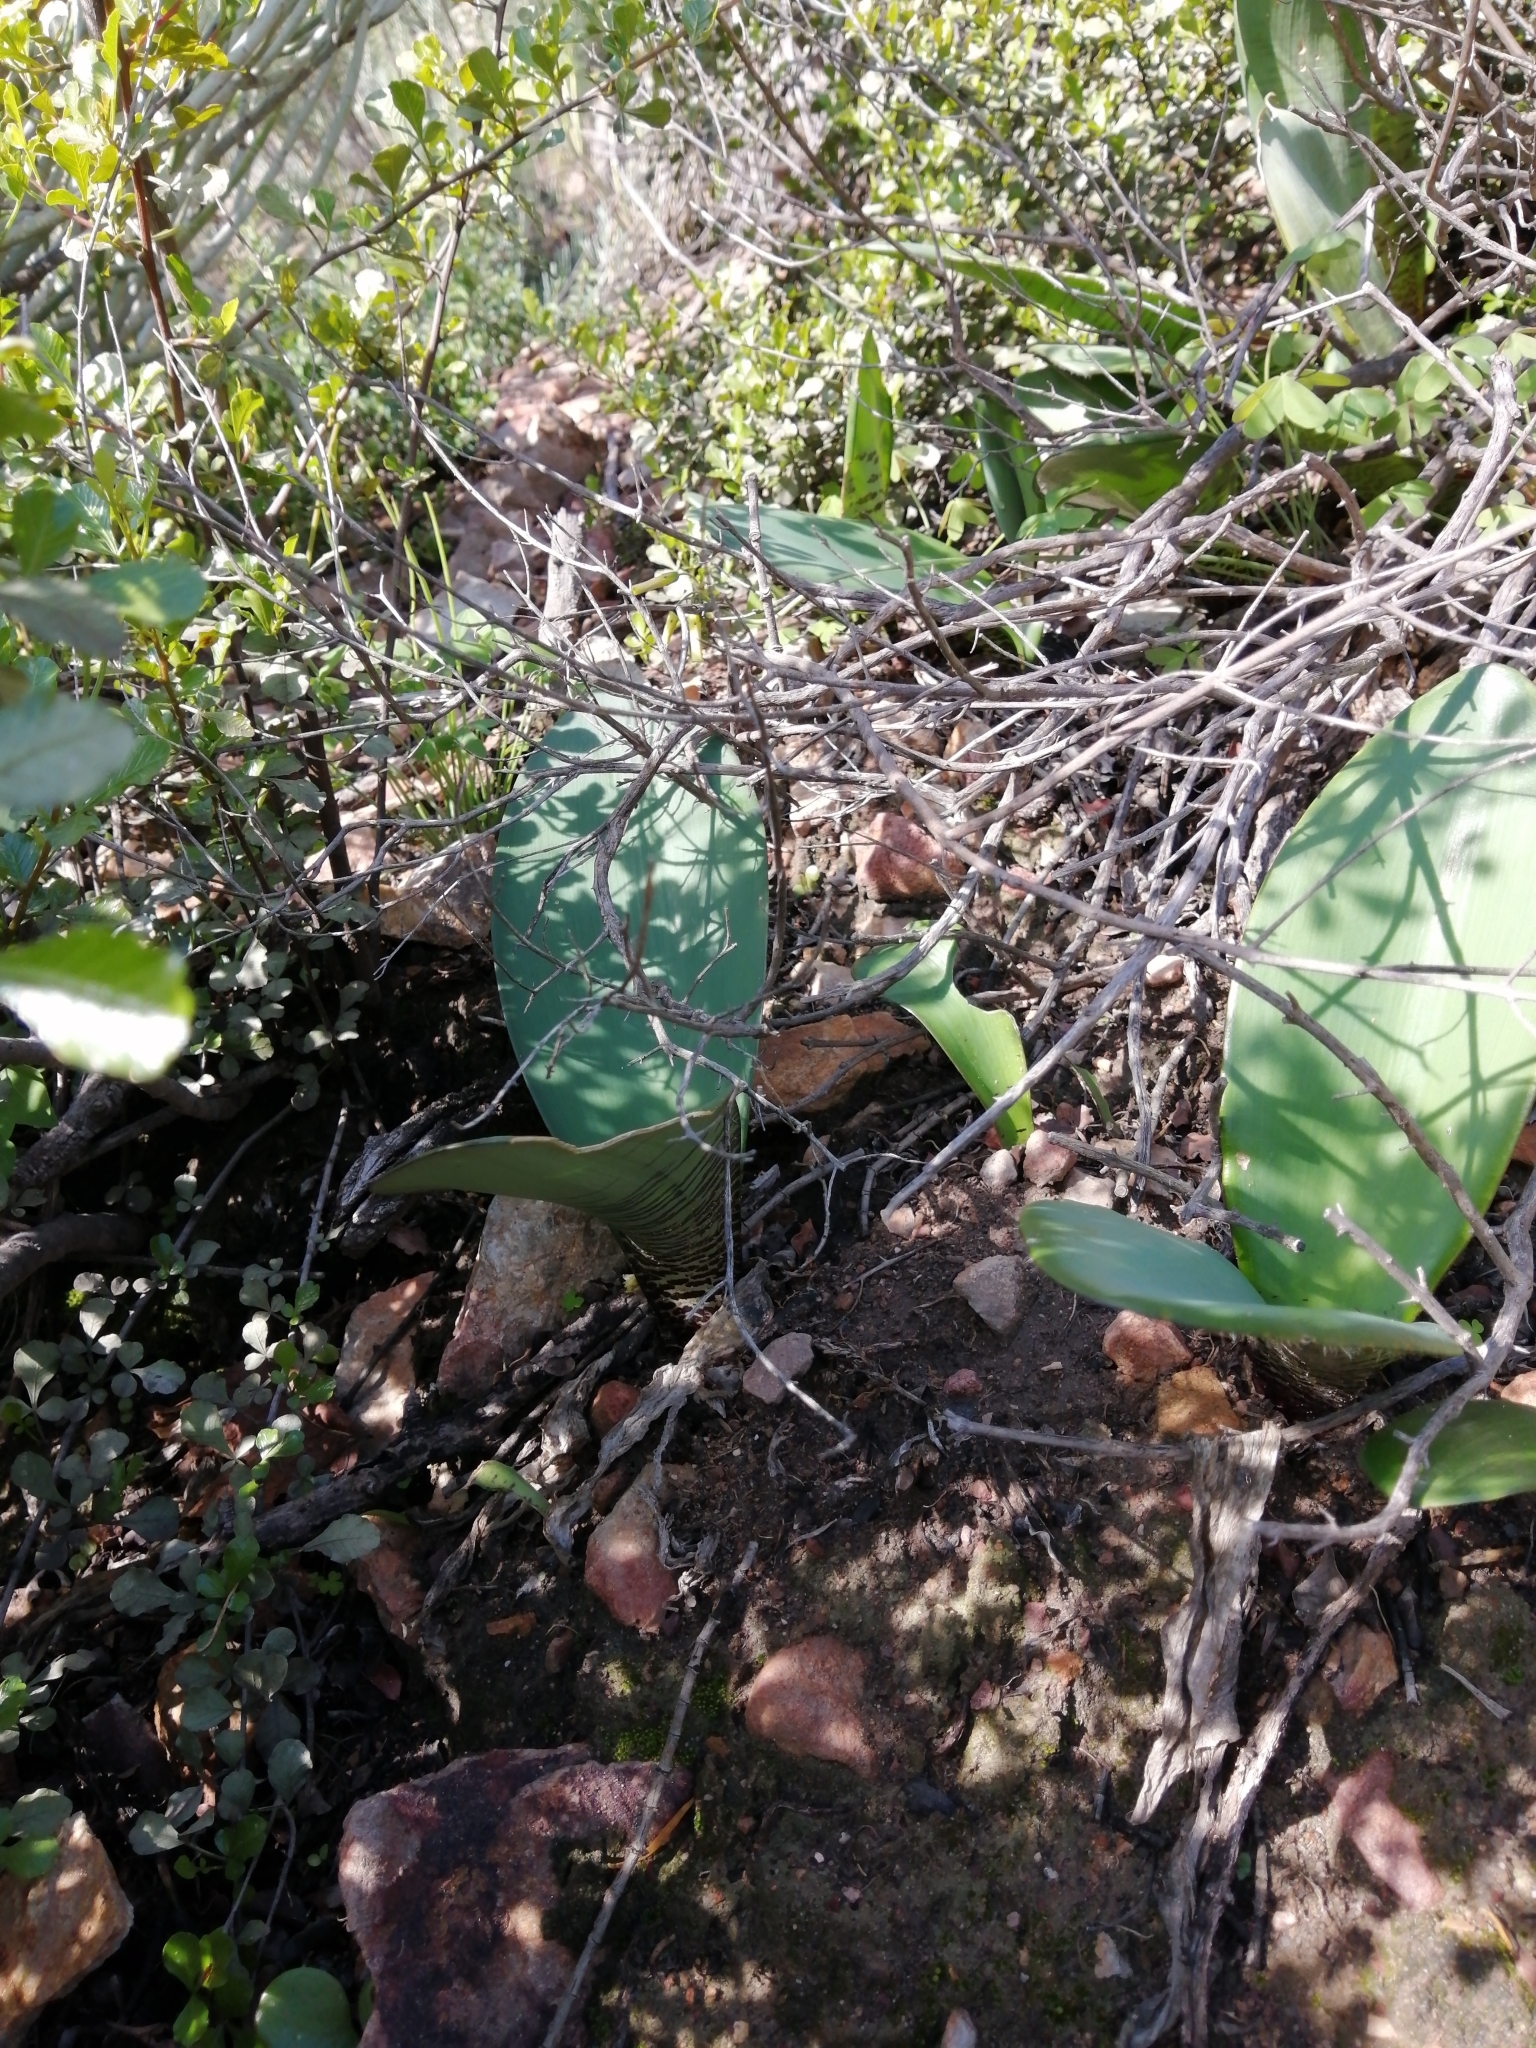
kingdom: Plantae
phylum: Tracheophyta
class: Liliopsida
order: Asparagales
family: Amaryllidaceae
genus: Haemanthus
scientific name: Haemanthus coccineus
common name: Cape-tulip
